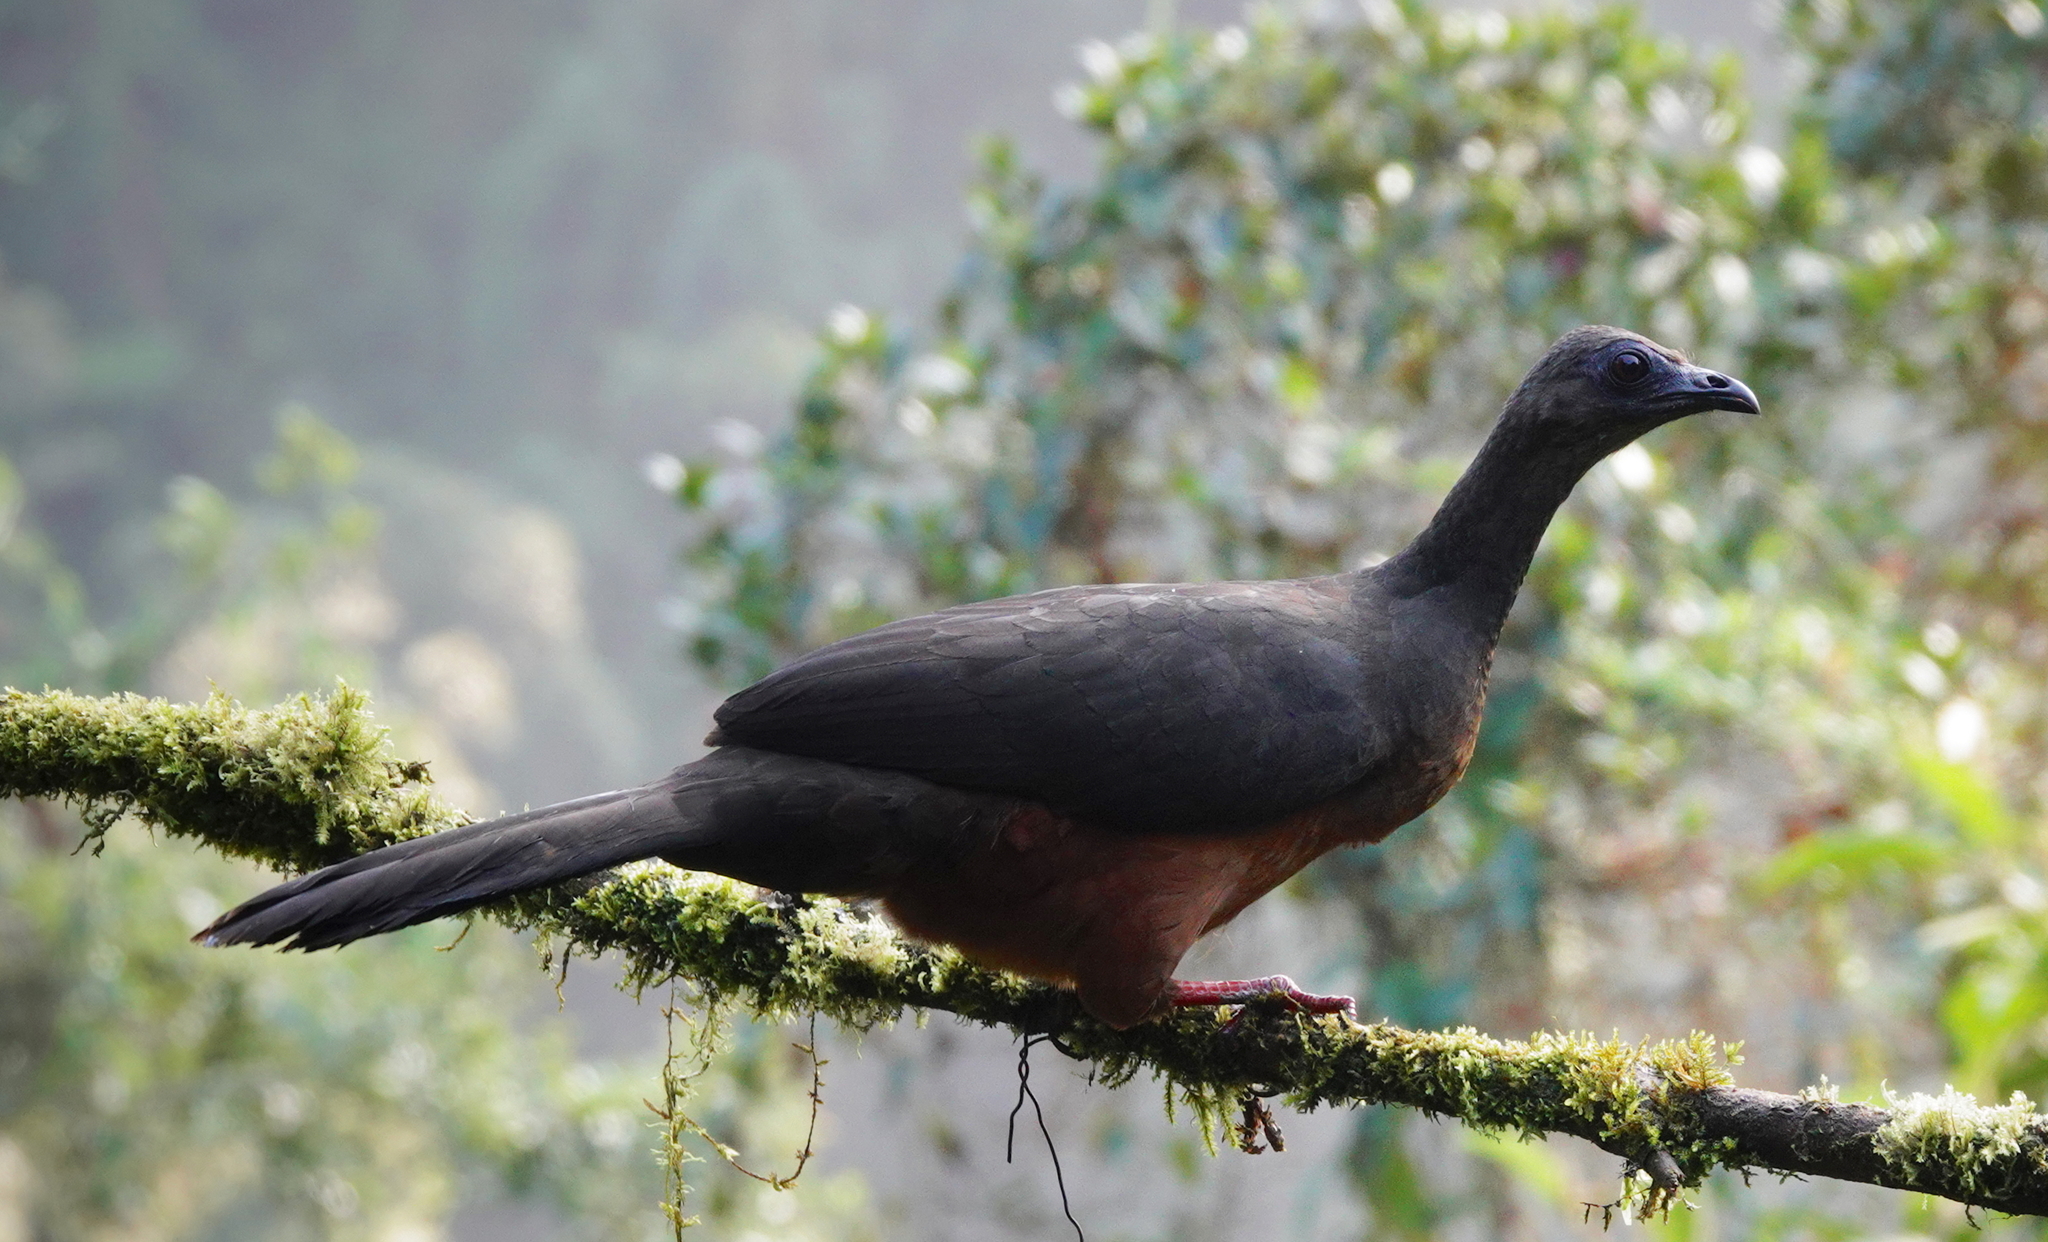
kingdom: Animalia
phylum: Chordata
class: Aves
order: Galliformes
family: Cracidae
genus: Chamaepetes
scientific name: Chamaepetes goudotii
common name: Sickle-winged guan
